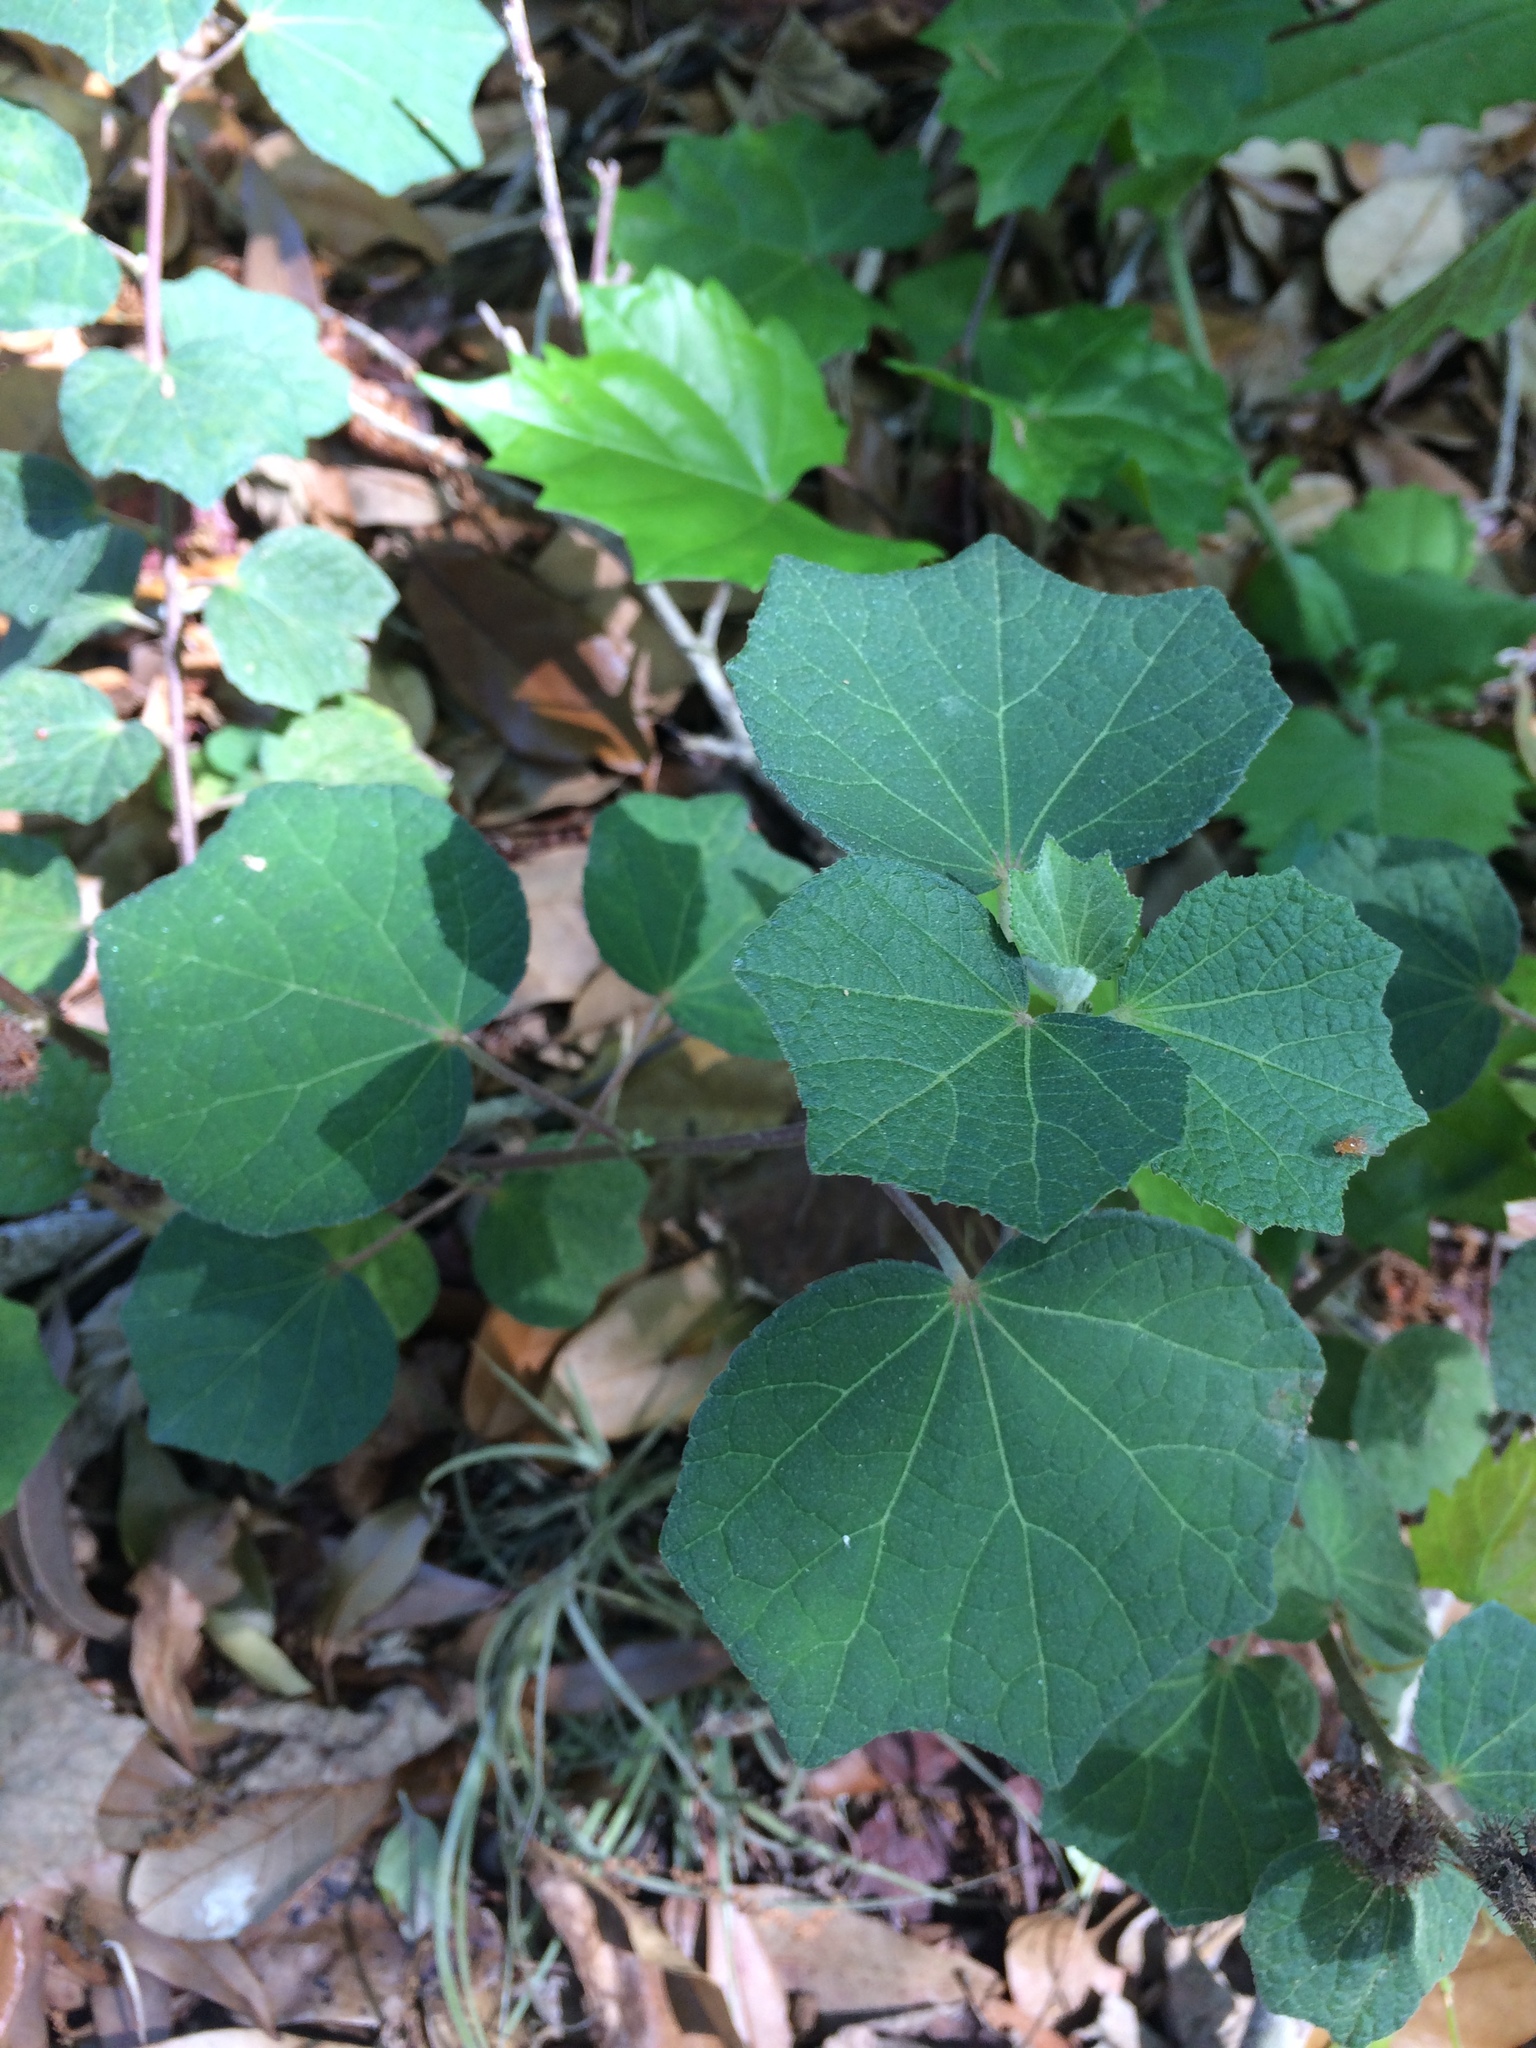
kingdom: Plantae
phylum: Tracheophyta
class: Magnoliopsida
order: Malvales
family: Malvaceae
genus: Urena
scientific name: Urena lobata
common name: Caesarweed
